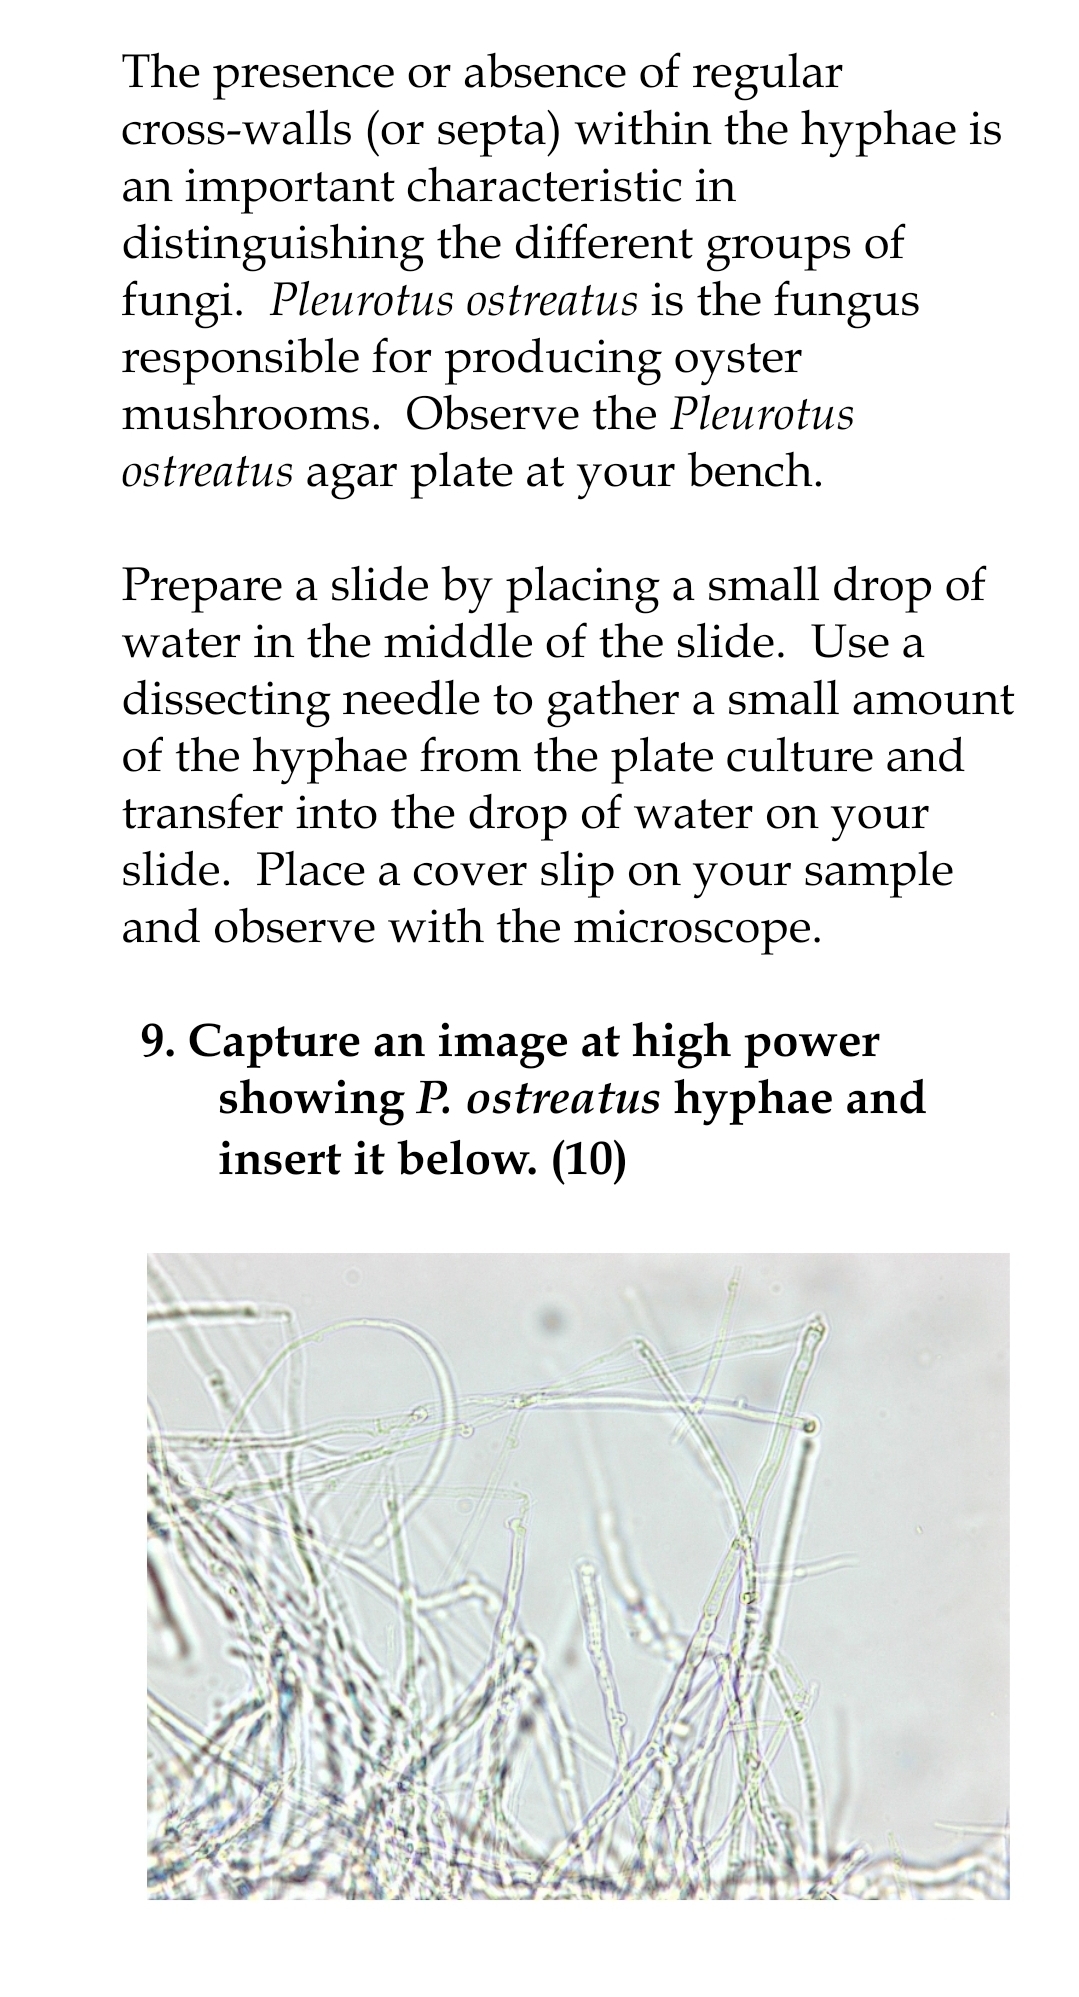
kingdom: Fungi
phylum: Basidiomycota
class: Agaricomycetes
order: Agaricales
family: Pleurotaceae
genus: Pleurotus
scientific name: Pleurotus ostreatus
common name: Oyster mushroom
